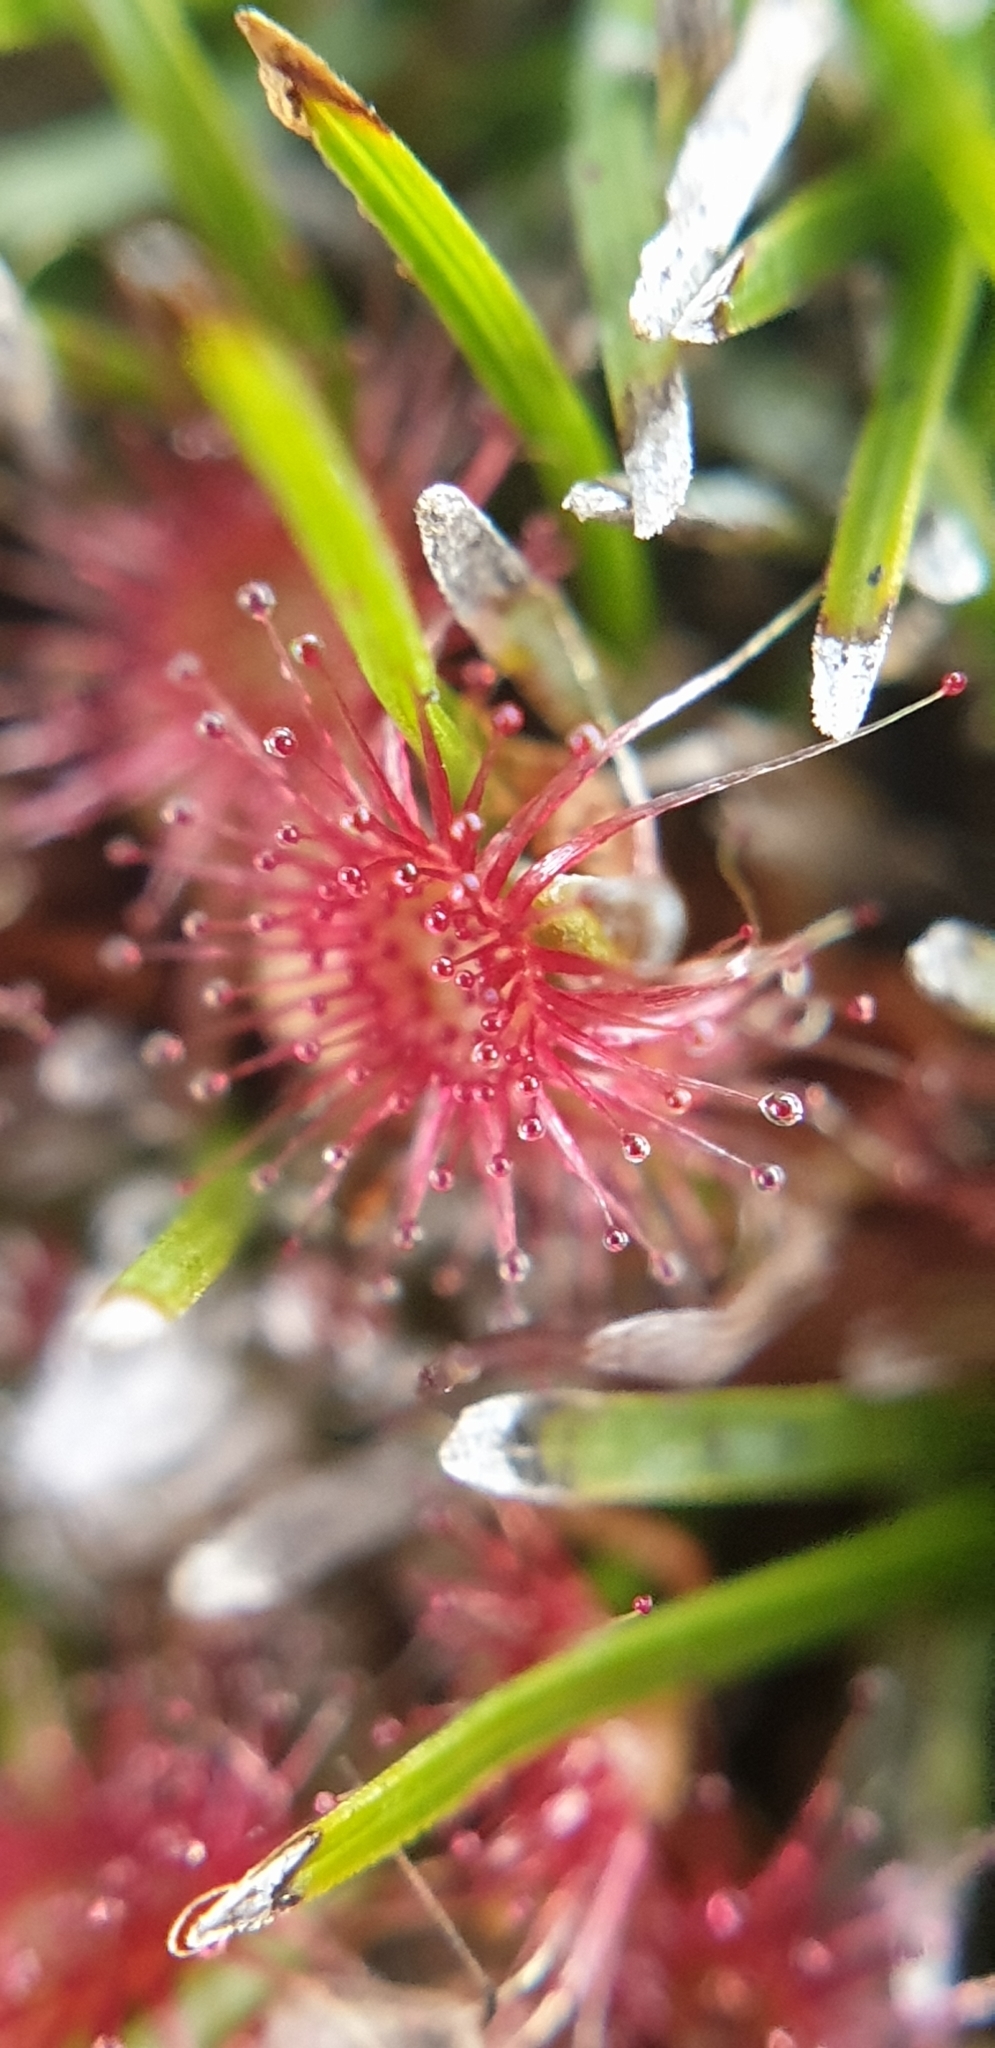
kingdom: Plantae
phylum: Tracheophyta
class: Magnoliopsida
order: Caryophyllales
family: Droseraceae
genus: Drosera
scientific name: Drosera pygmaea
